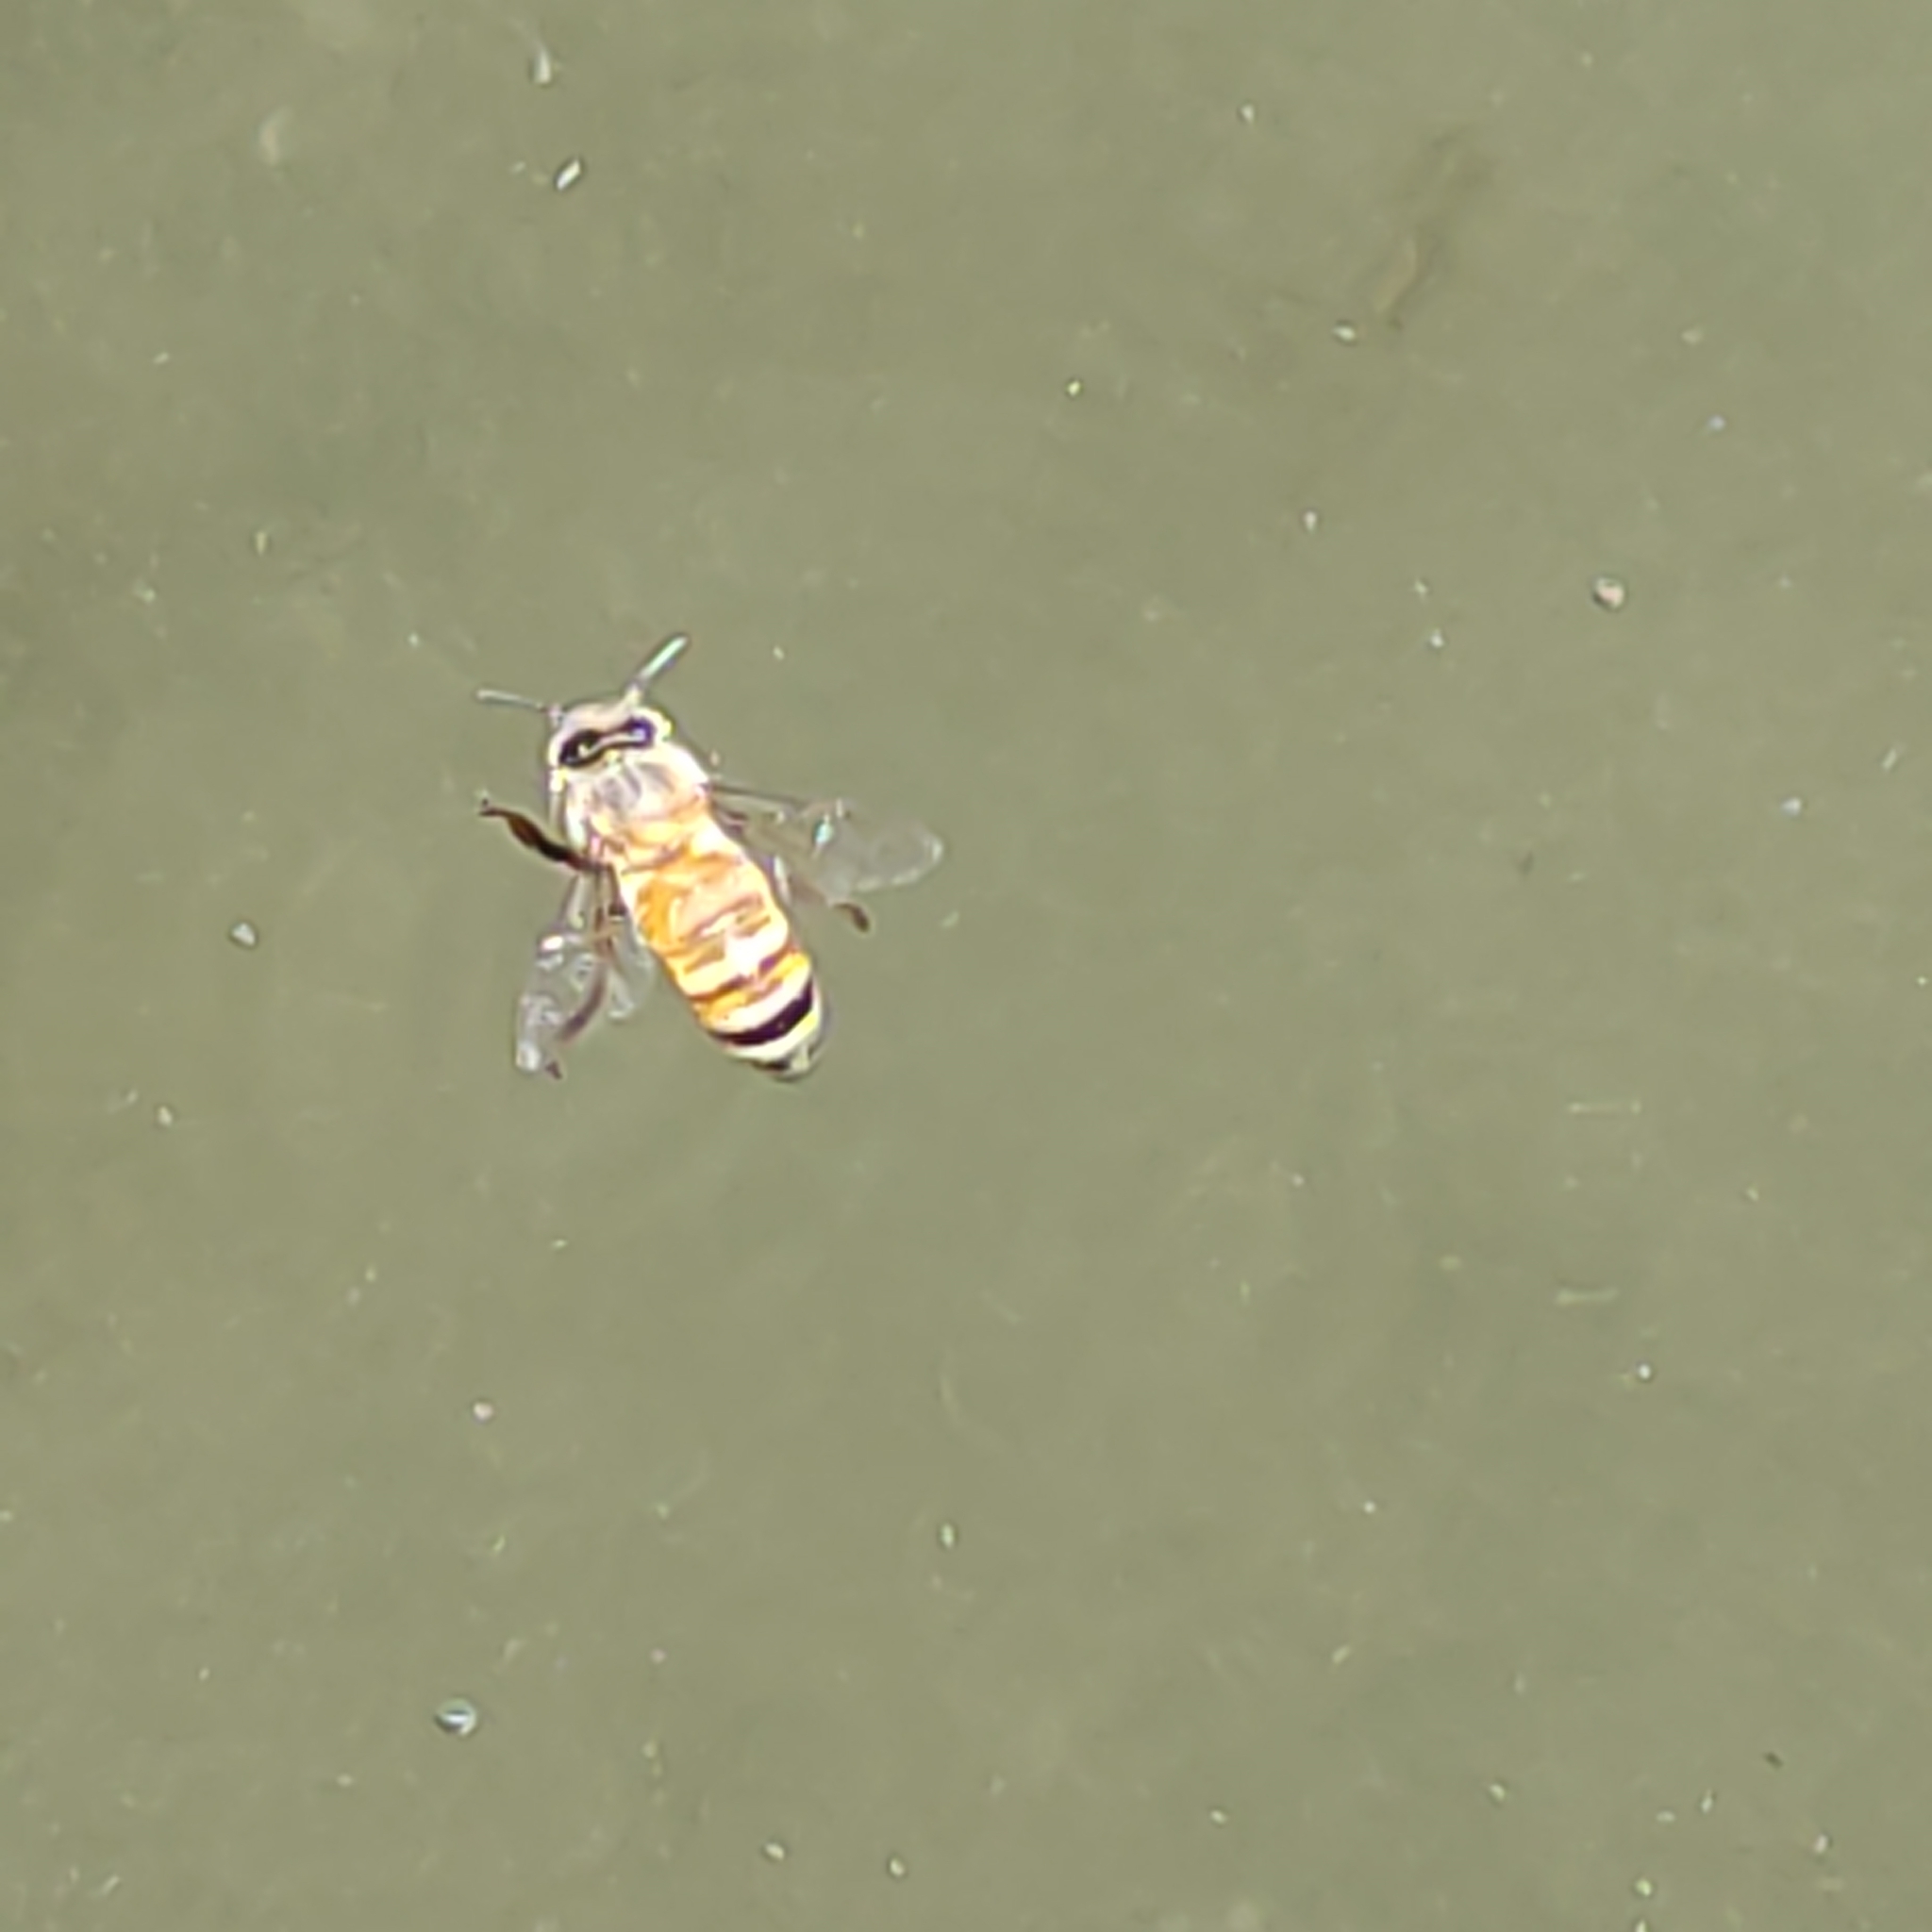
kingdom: Animalia
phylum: Arthropoda
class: Insecta
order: Hymenoptera
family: Apidae
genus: Apis
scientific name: Apis mellifera
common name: Honey bee
